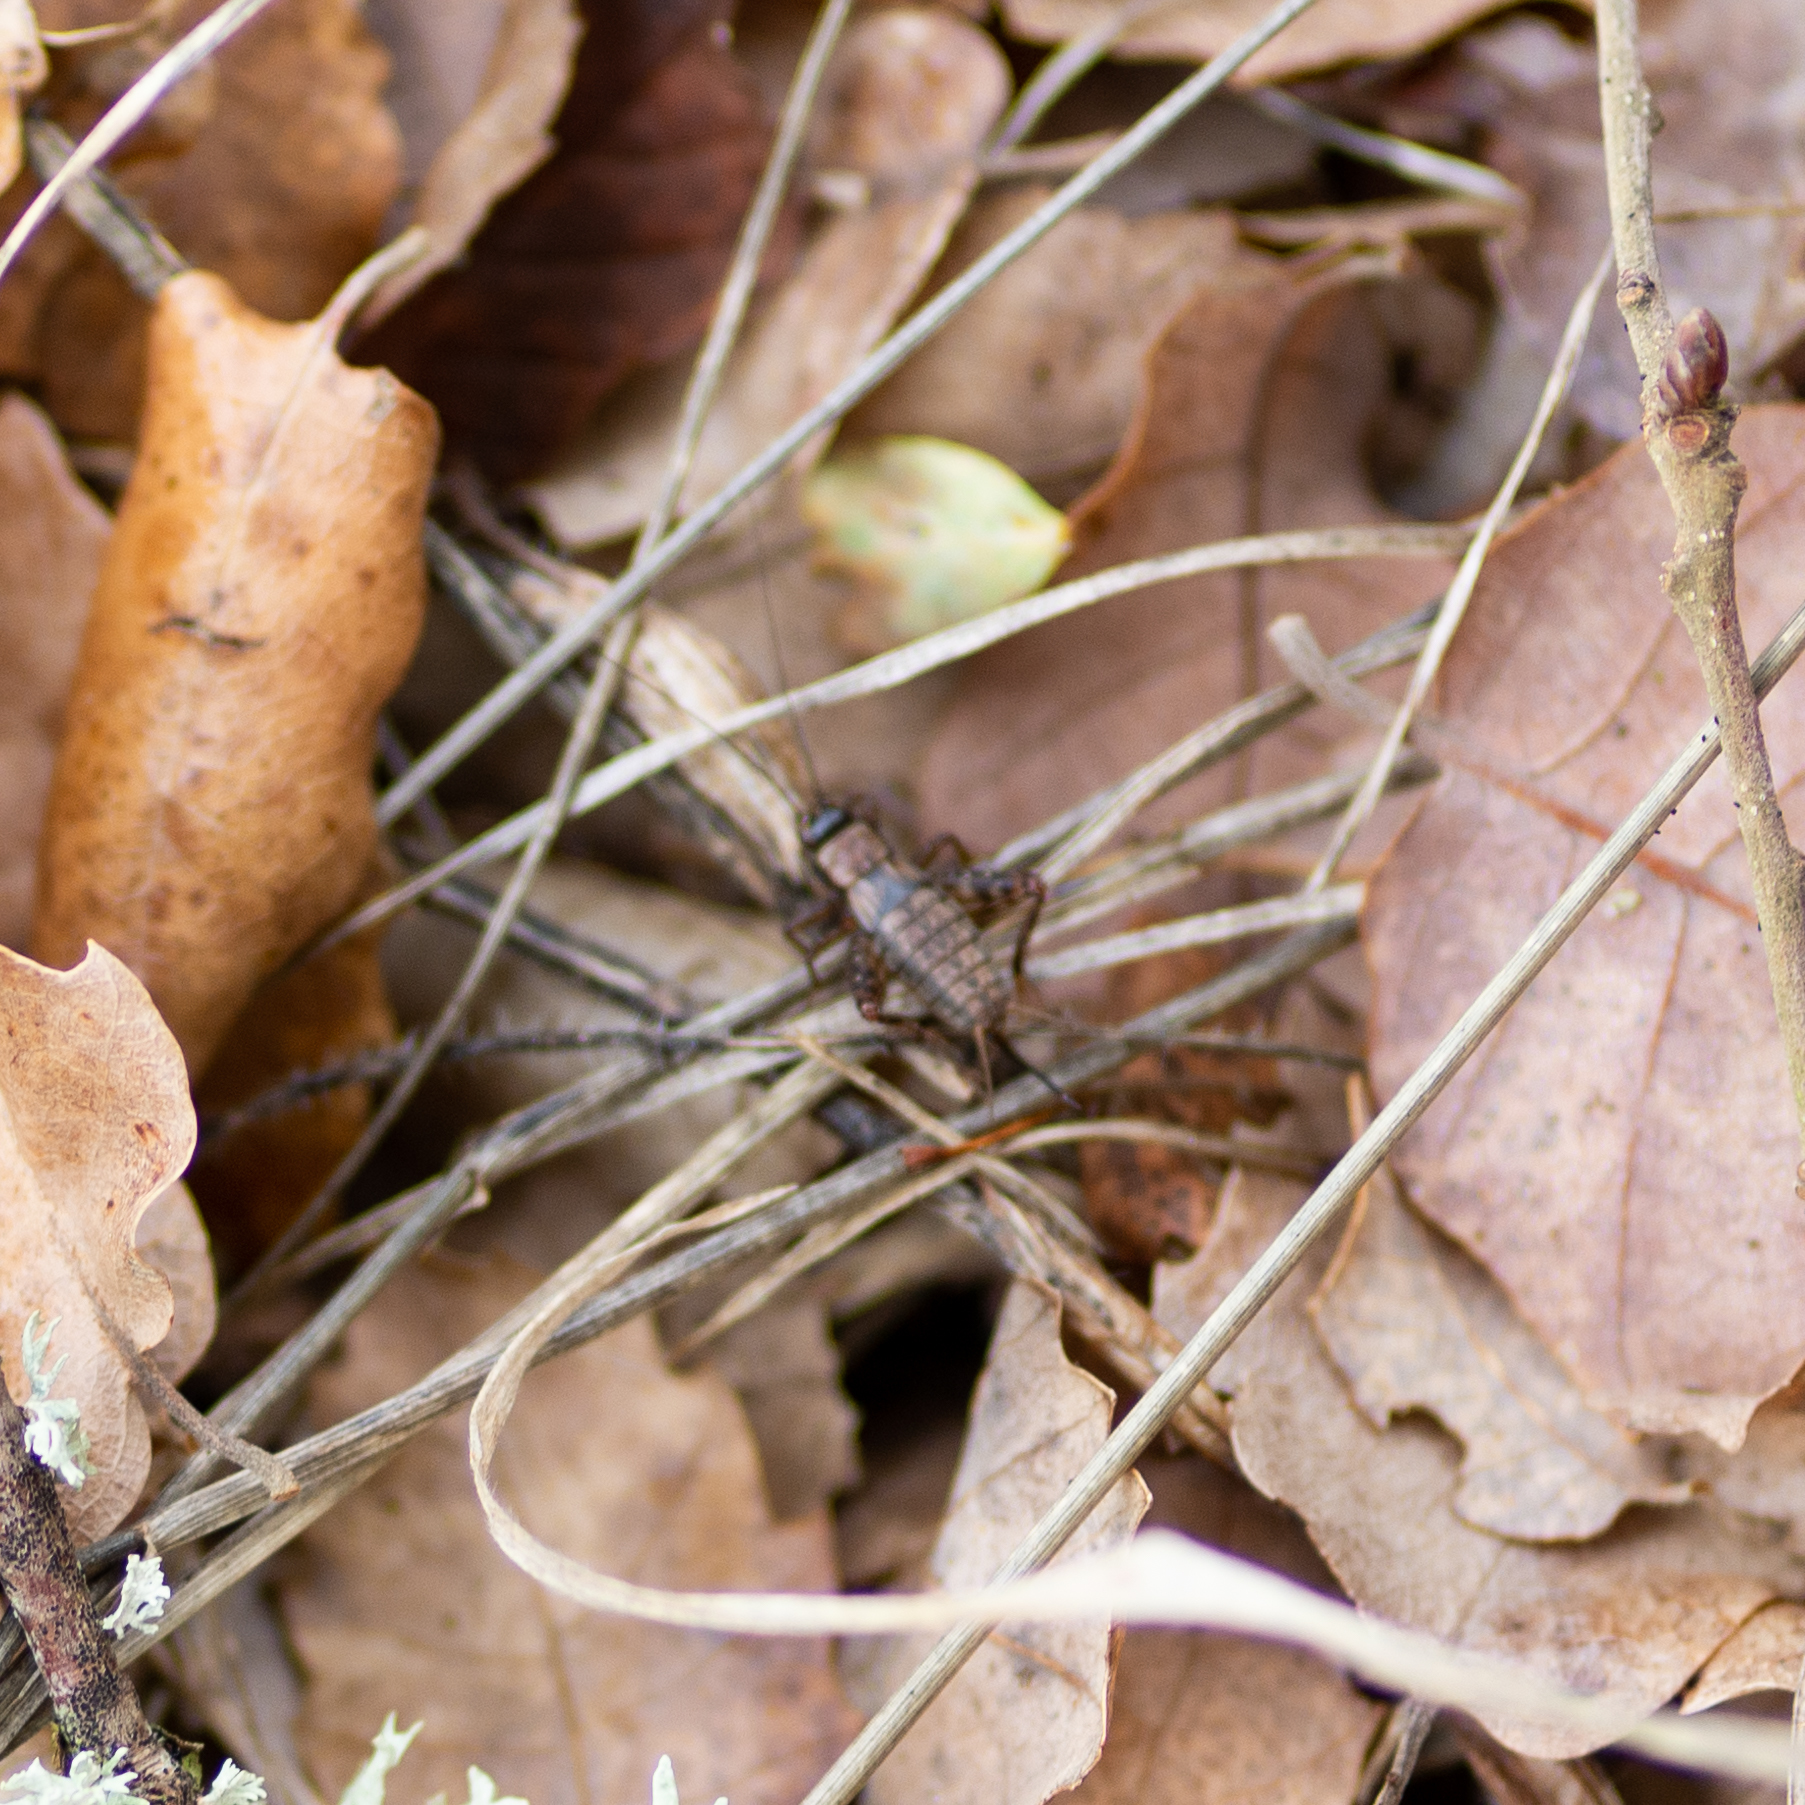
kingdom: Animalia
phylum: Arthropoda
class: Insecta
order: Orthoptera
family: Trigonidiidae
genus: Nemobius
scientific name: Nemobius sylvestris
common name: Wood-cricket
